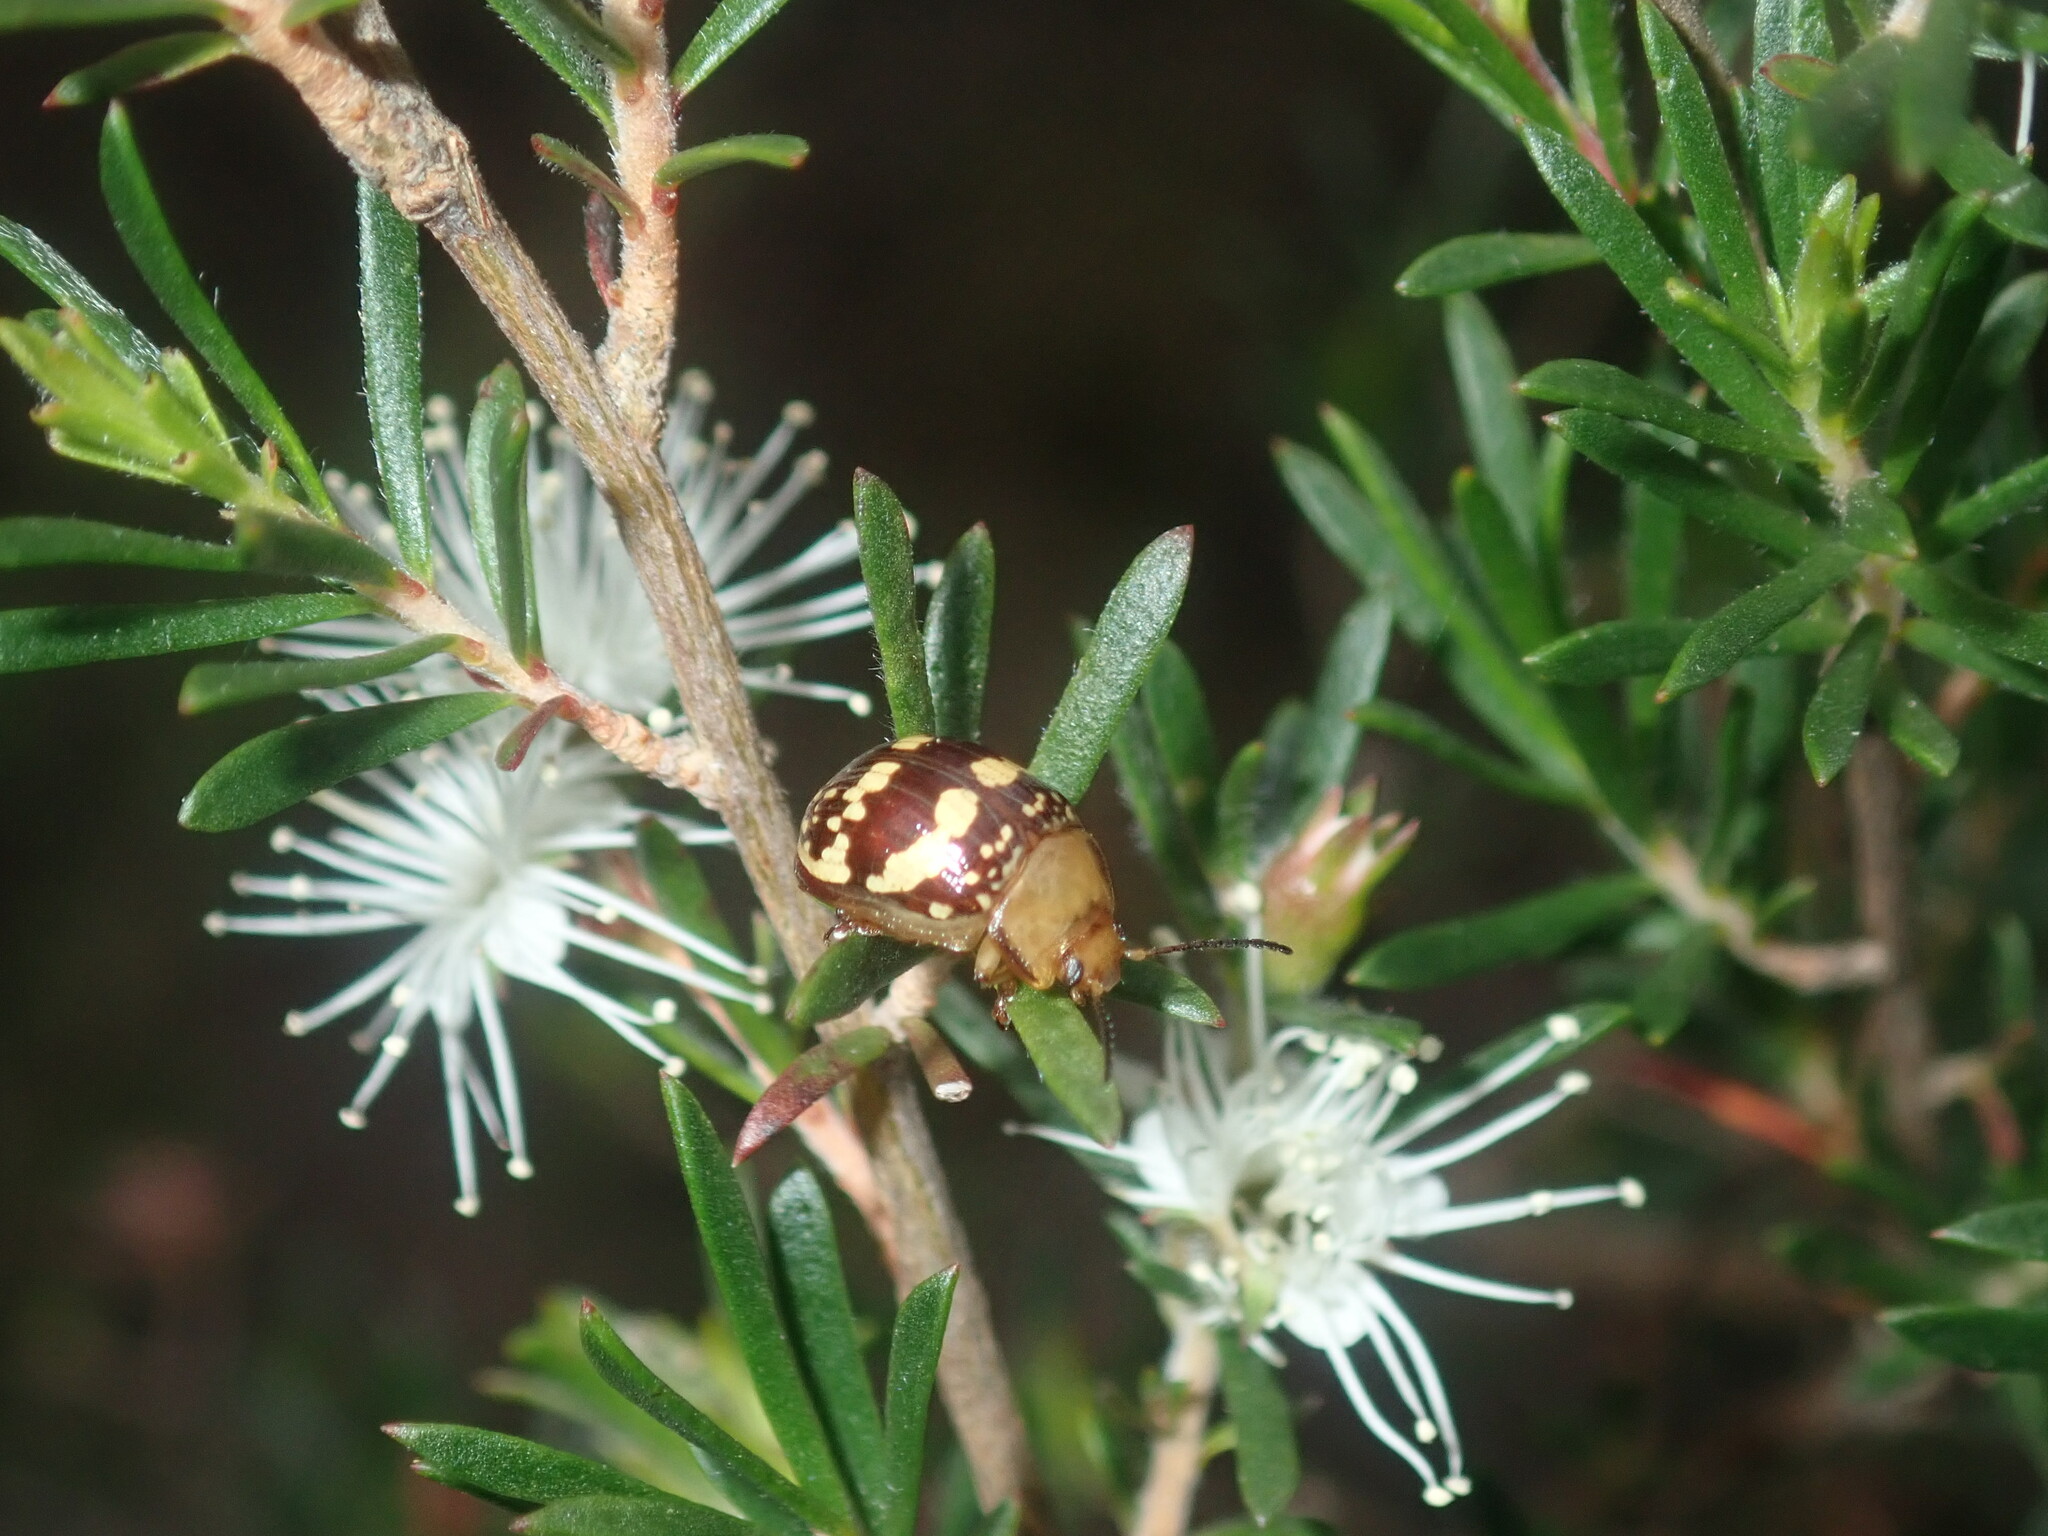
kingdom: Animalia
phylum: Arthropoda
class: Insecta
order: Coleoptera
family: Chrysomelidae
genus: Paropsis
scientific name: Paropsis
